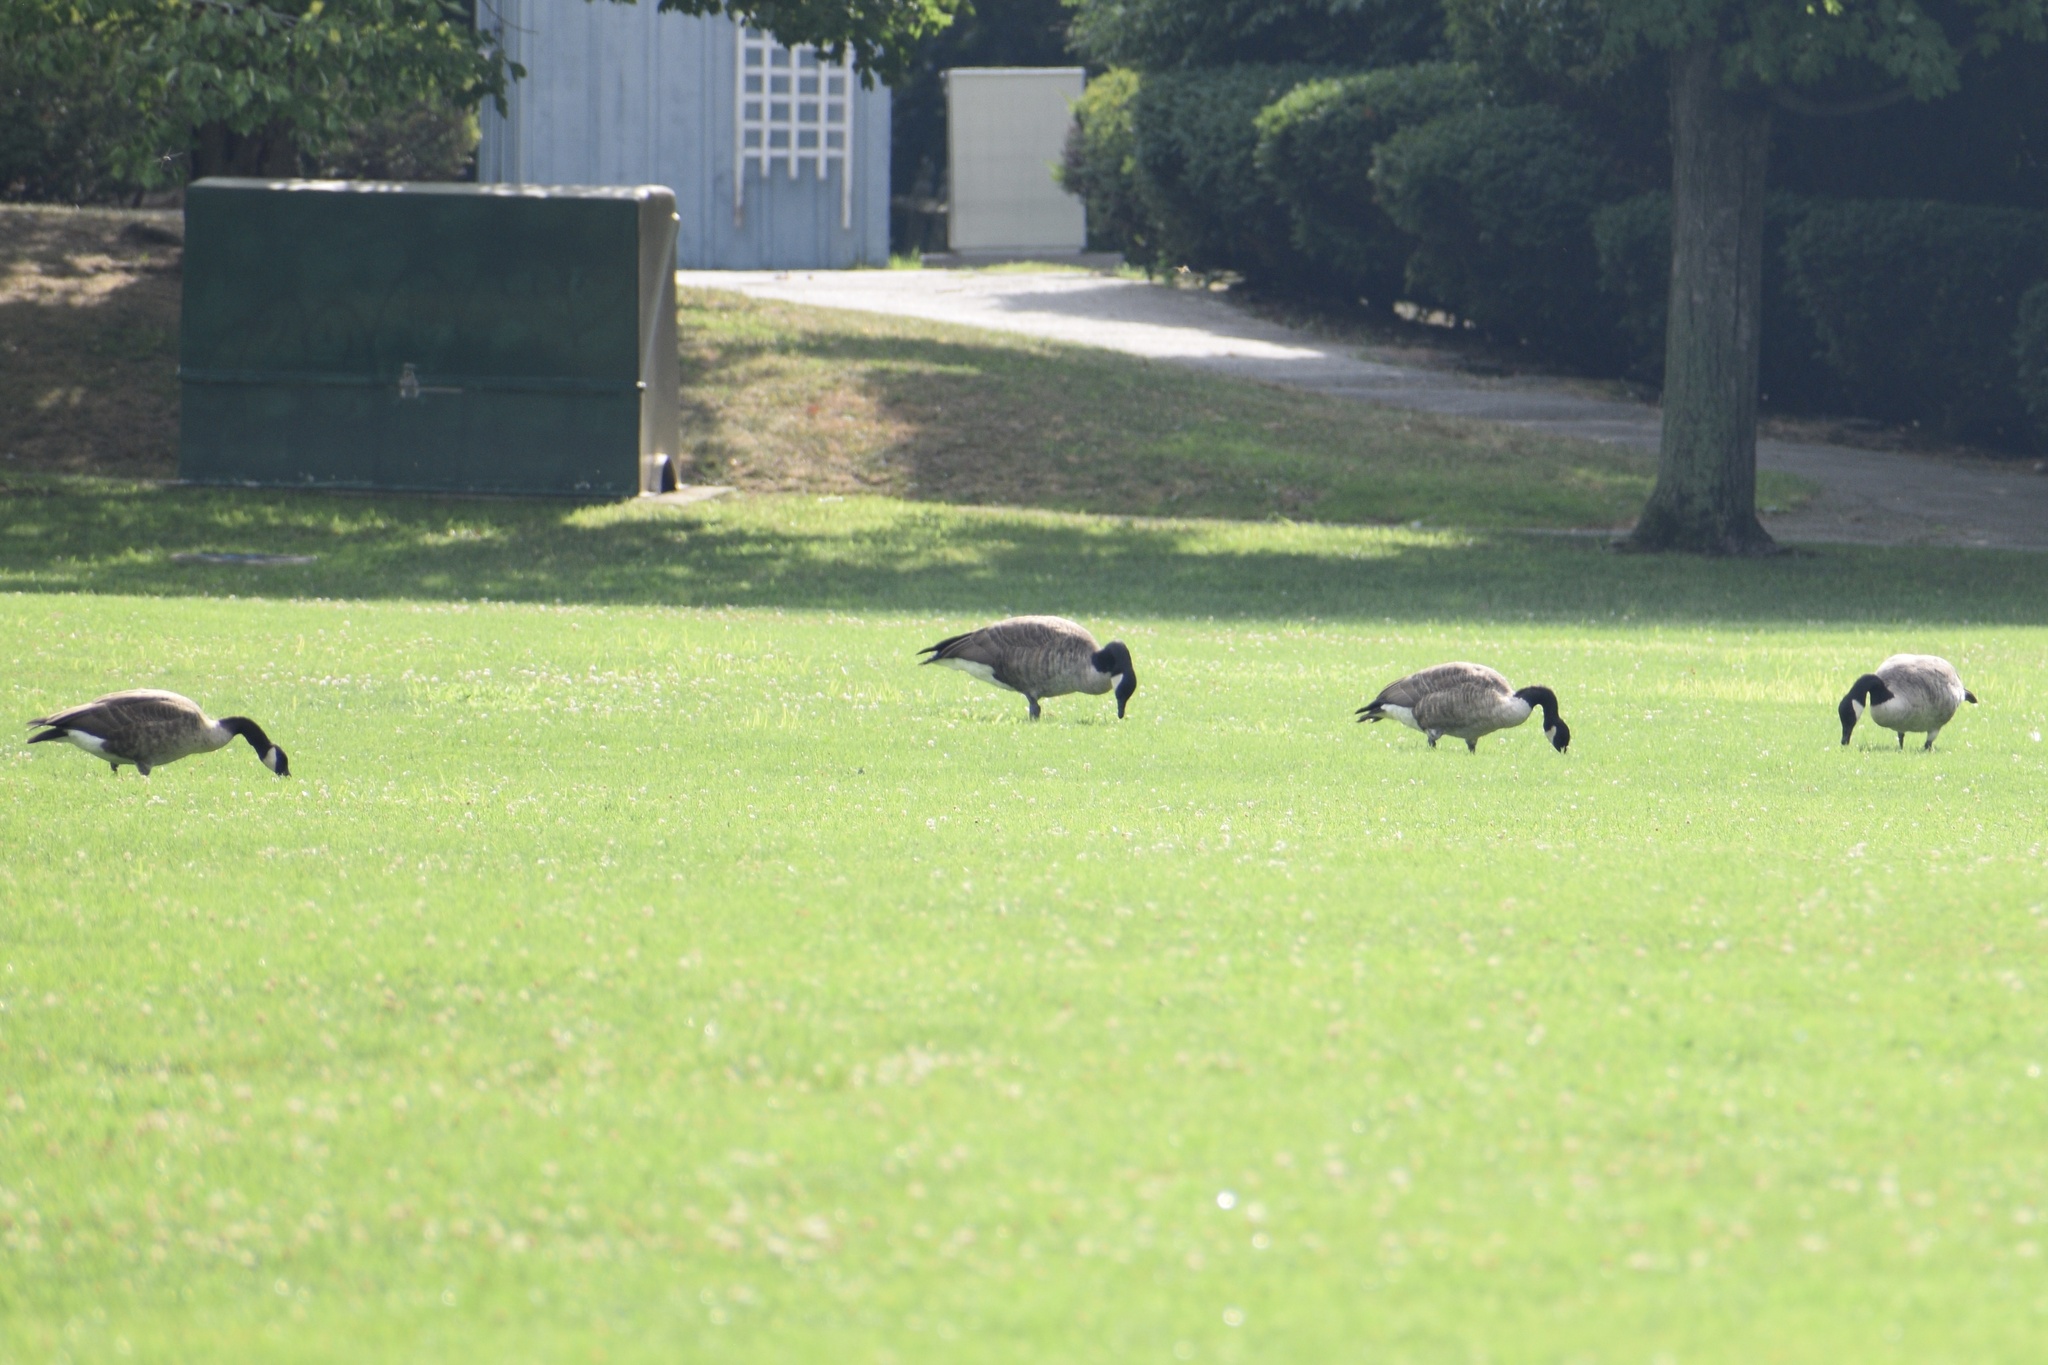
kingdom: Animalia
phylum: Chordata
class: Aves
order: Anseriformes
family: Anatidae
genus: Branta
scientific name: Branta canadensis
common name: Canada goose
